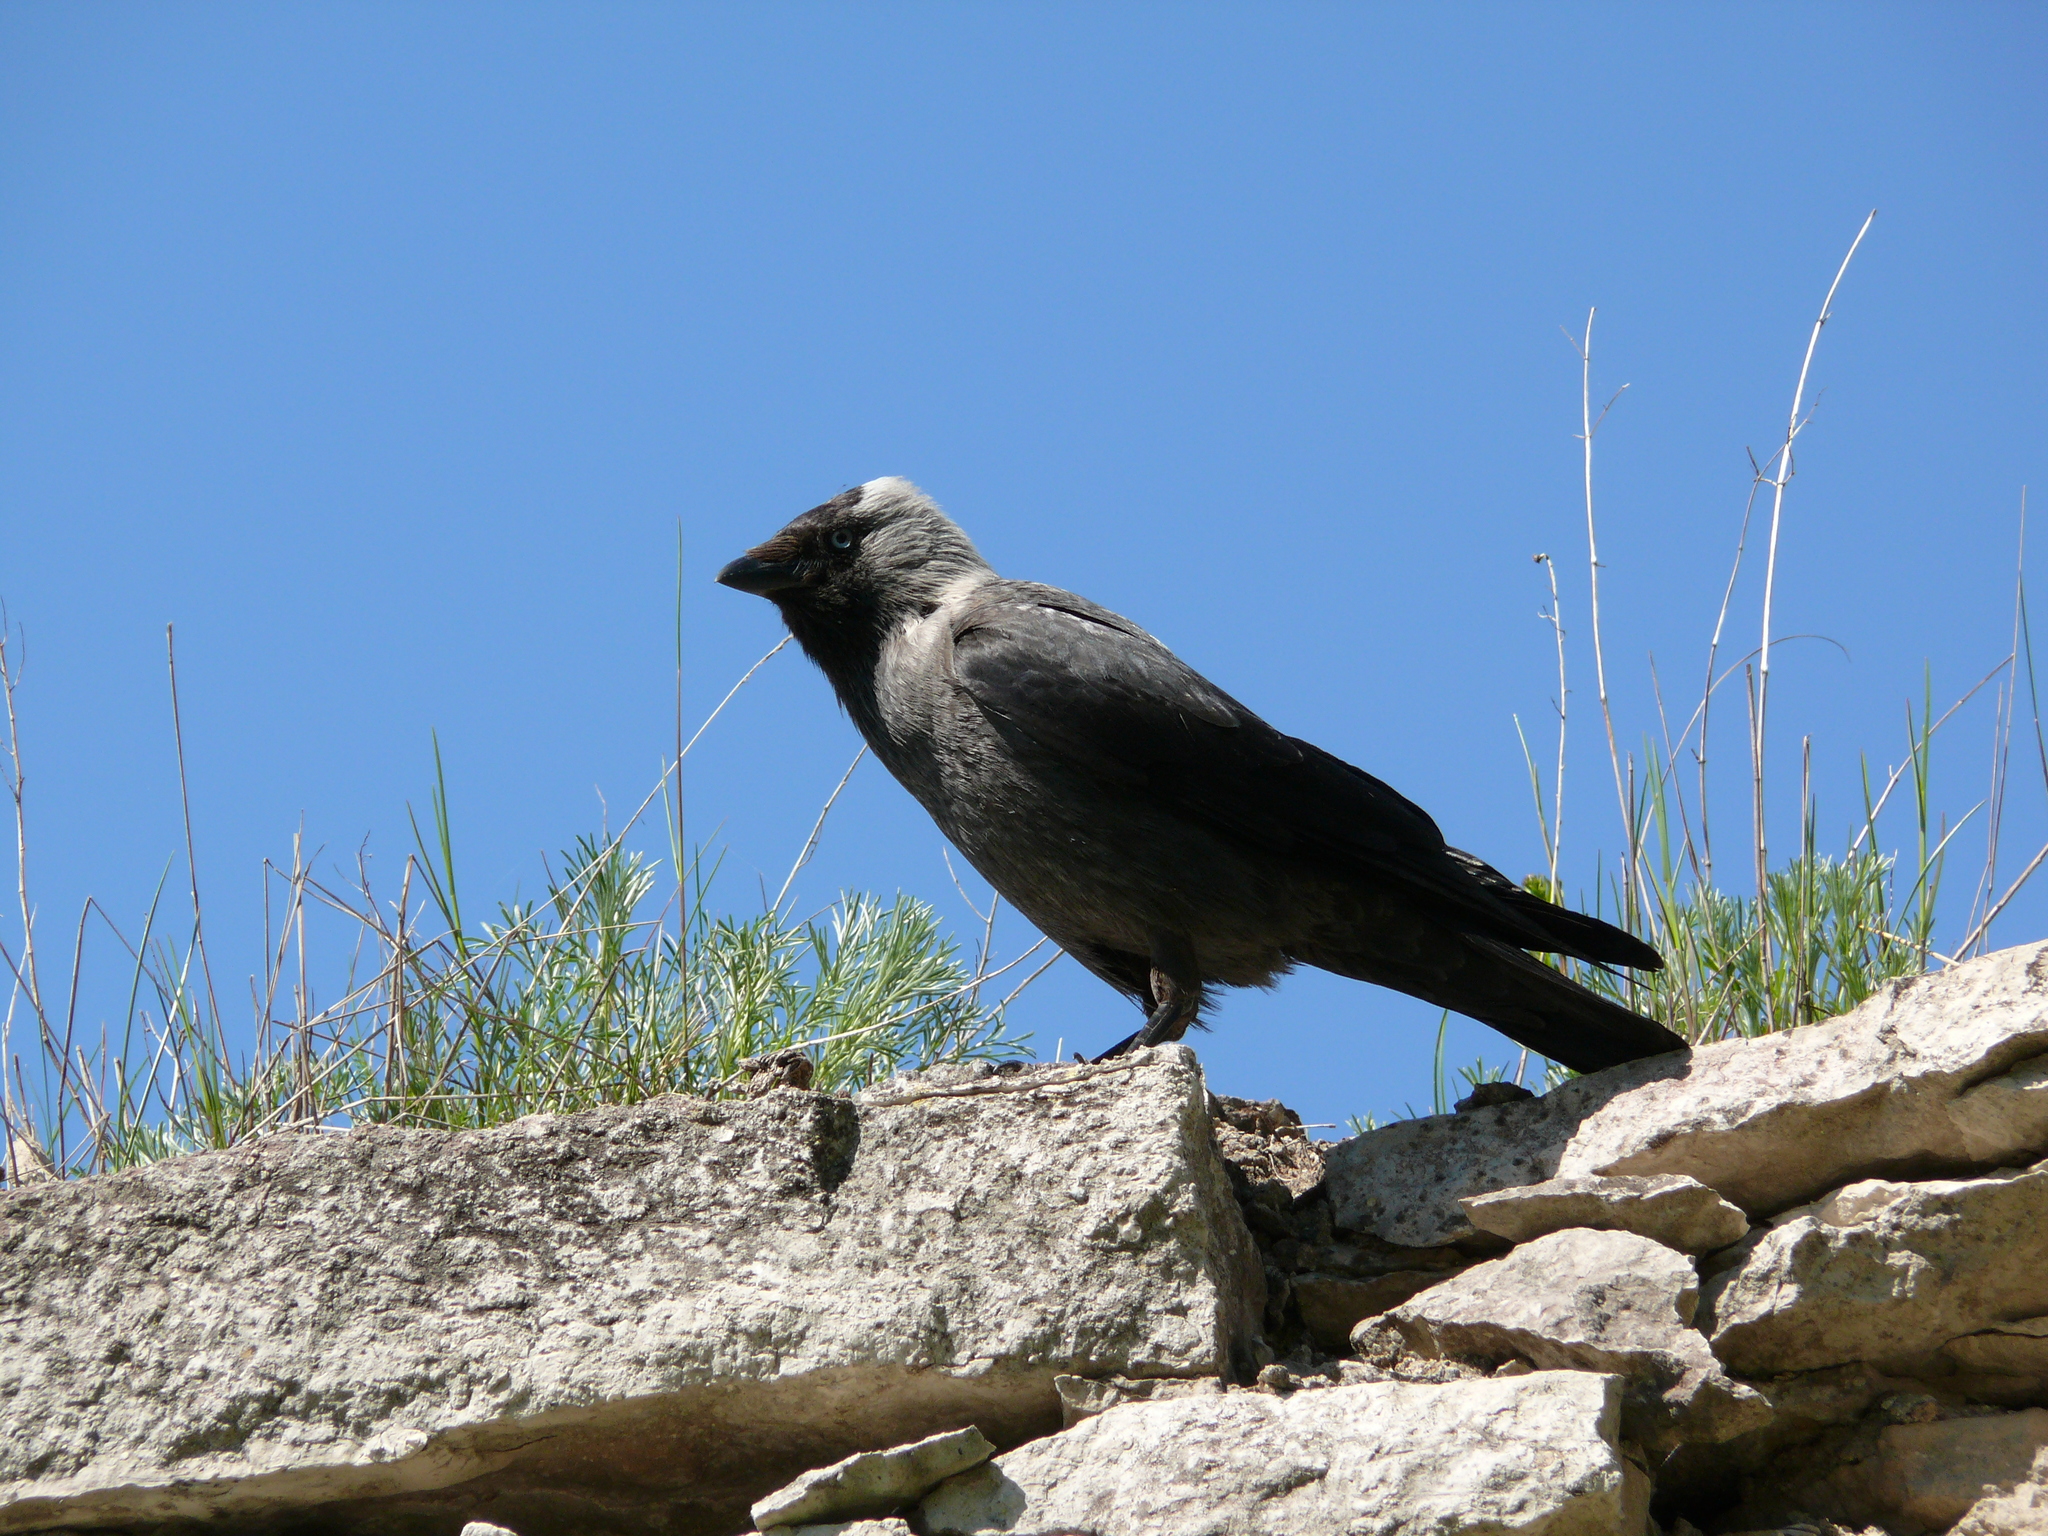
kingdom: Animalia
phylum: Chordata
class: Aves
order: Passeriformes
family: Corvidae
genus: Coloeus
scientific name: Coloeus monedula
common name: Western jackdaw
